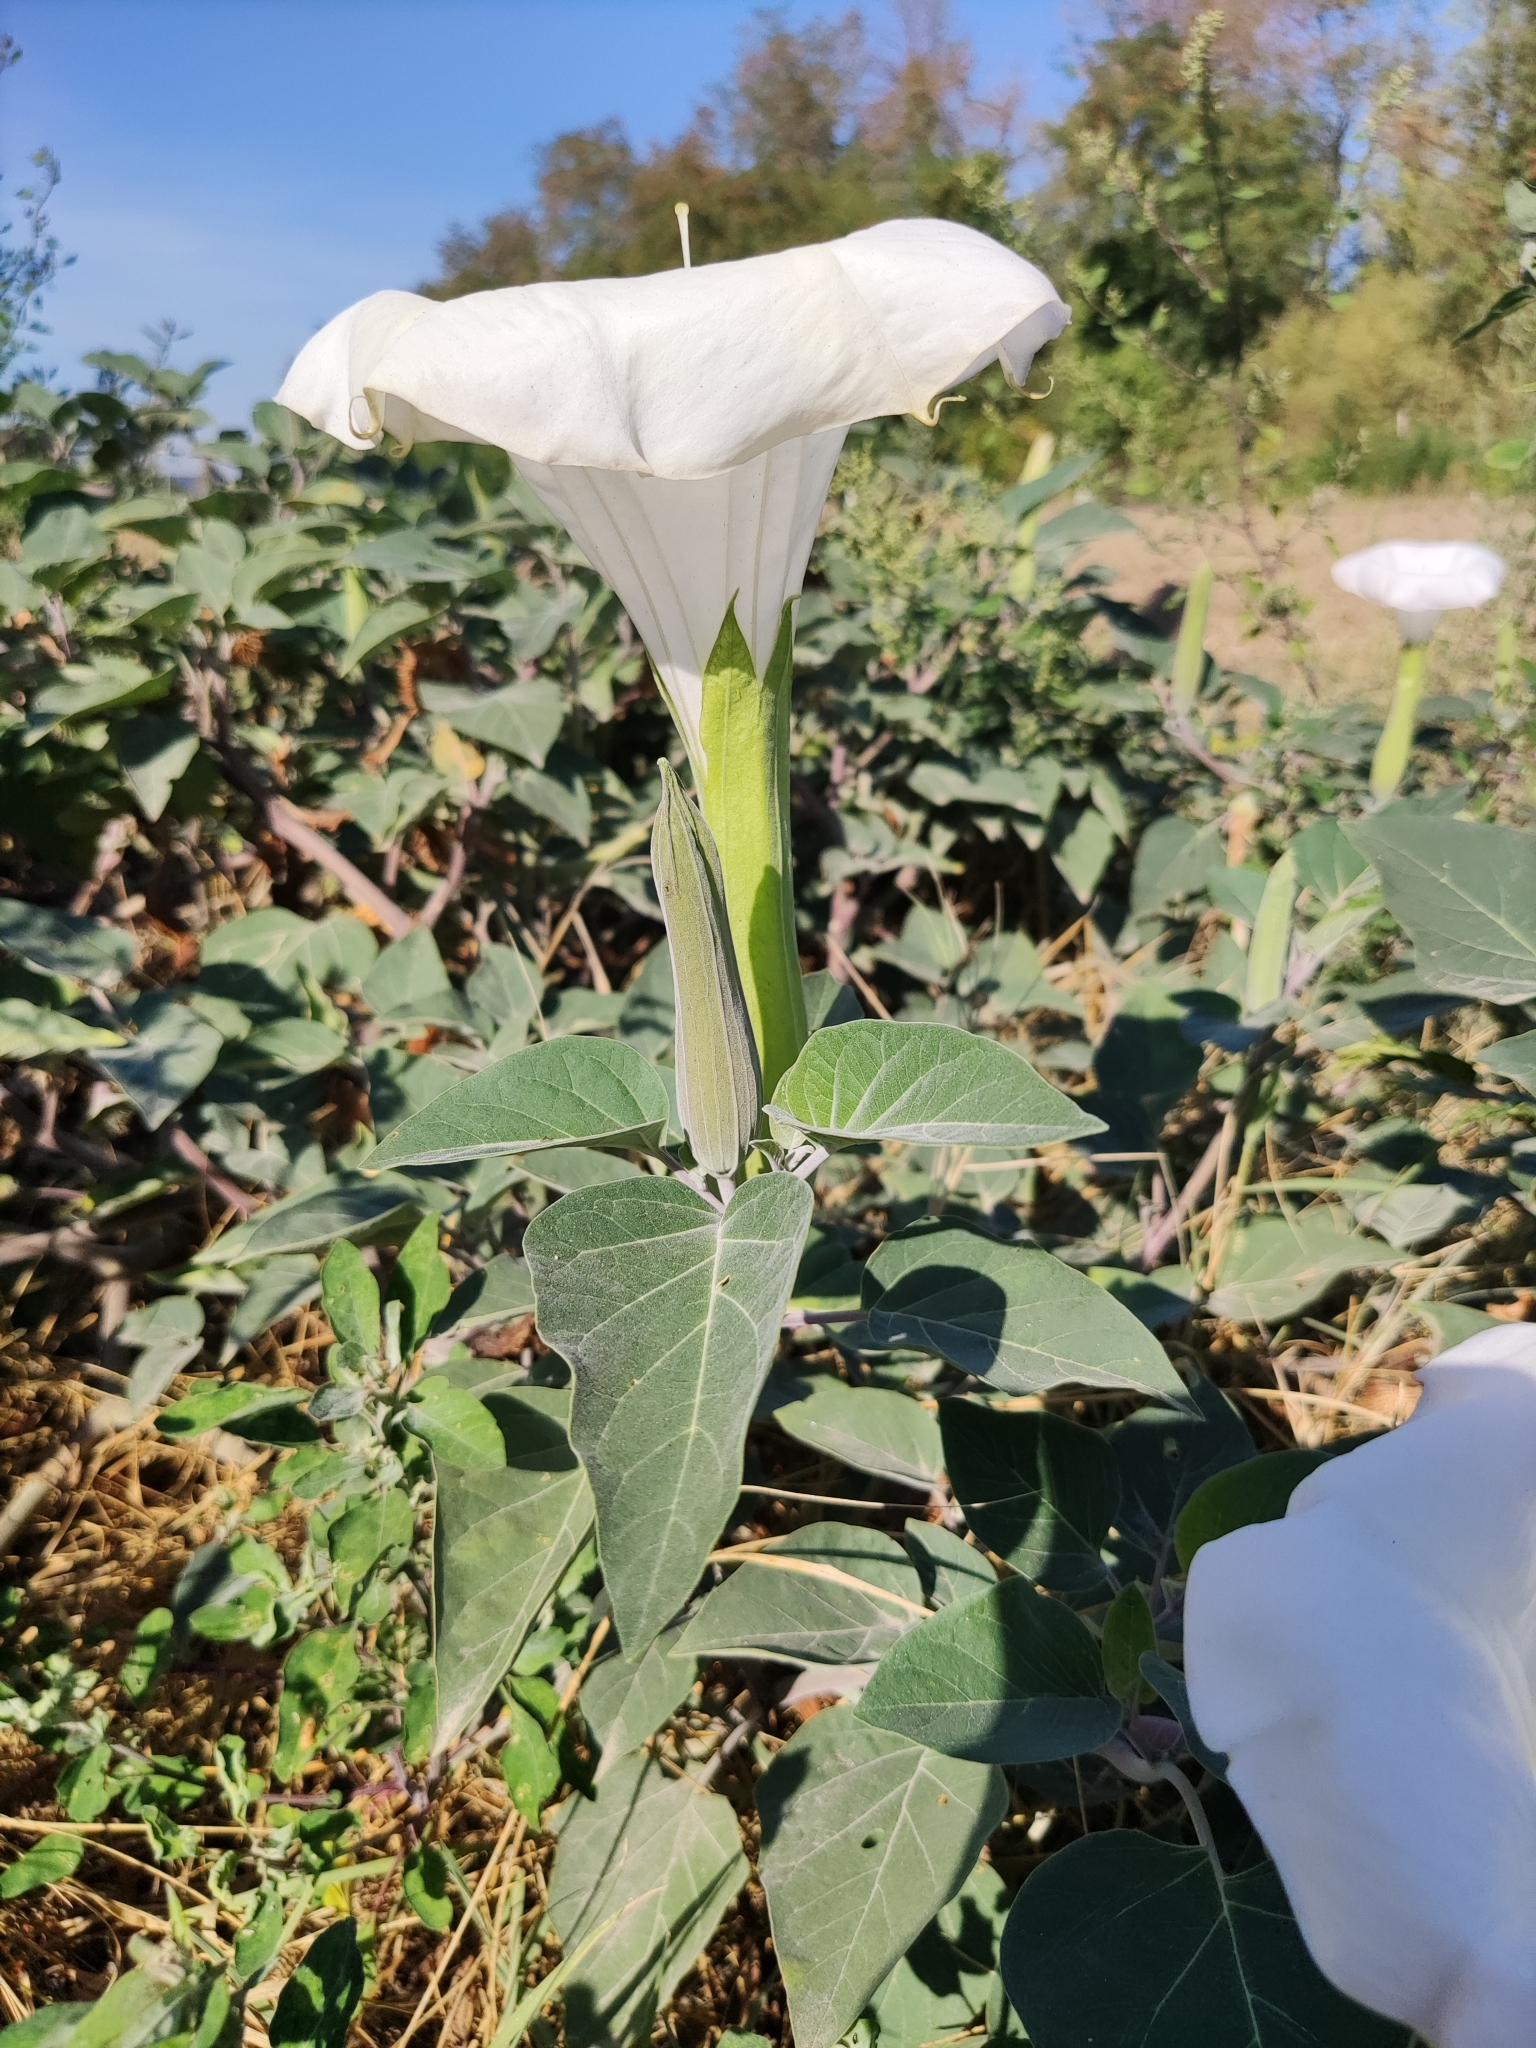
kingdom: Plantae
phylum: Tracheophyta
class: Magnoliopsida
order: Solanales
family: Solanaceae
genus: Datura
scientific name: Datura wrightii
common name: Sacred thorn-apple
